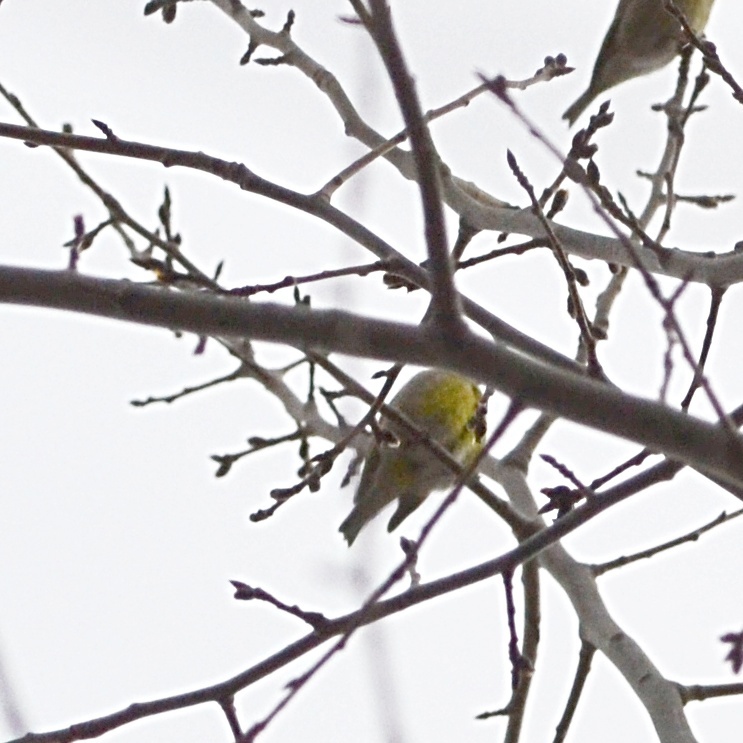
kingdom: Plantae
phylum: Tracheophyta
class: Liliopsida
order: Poales
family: Poaceae
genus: Chloris
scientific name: Chloris chloris
